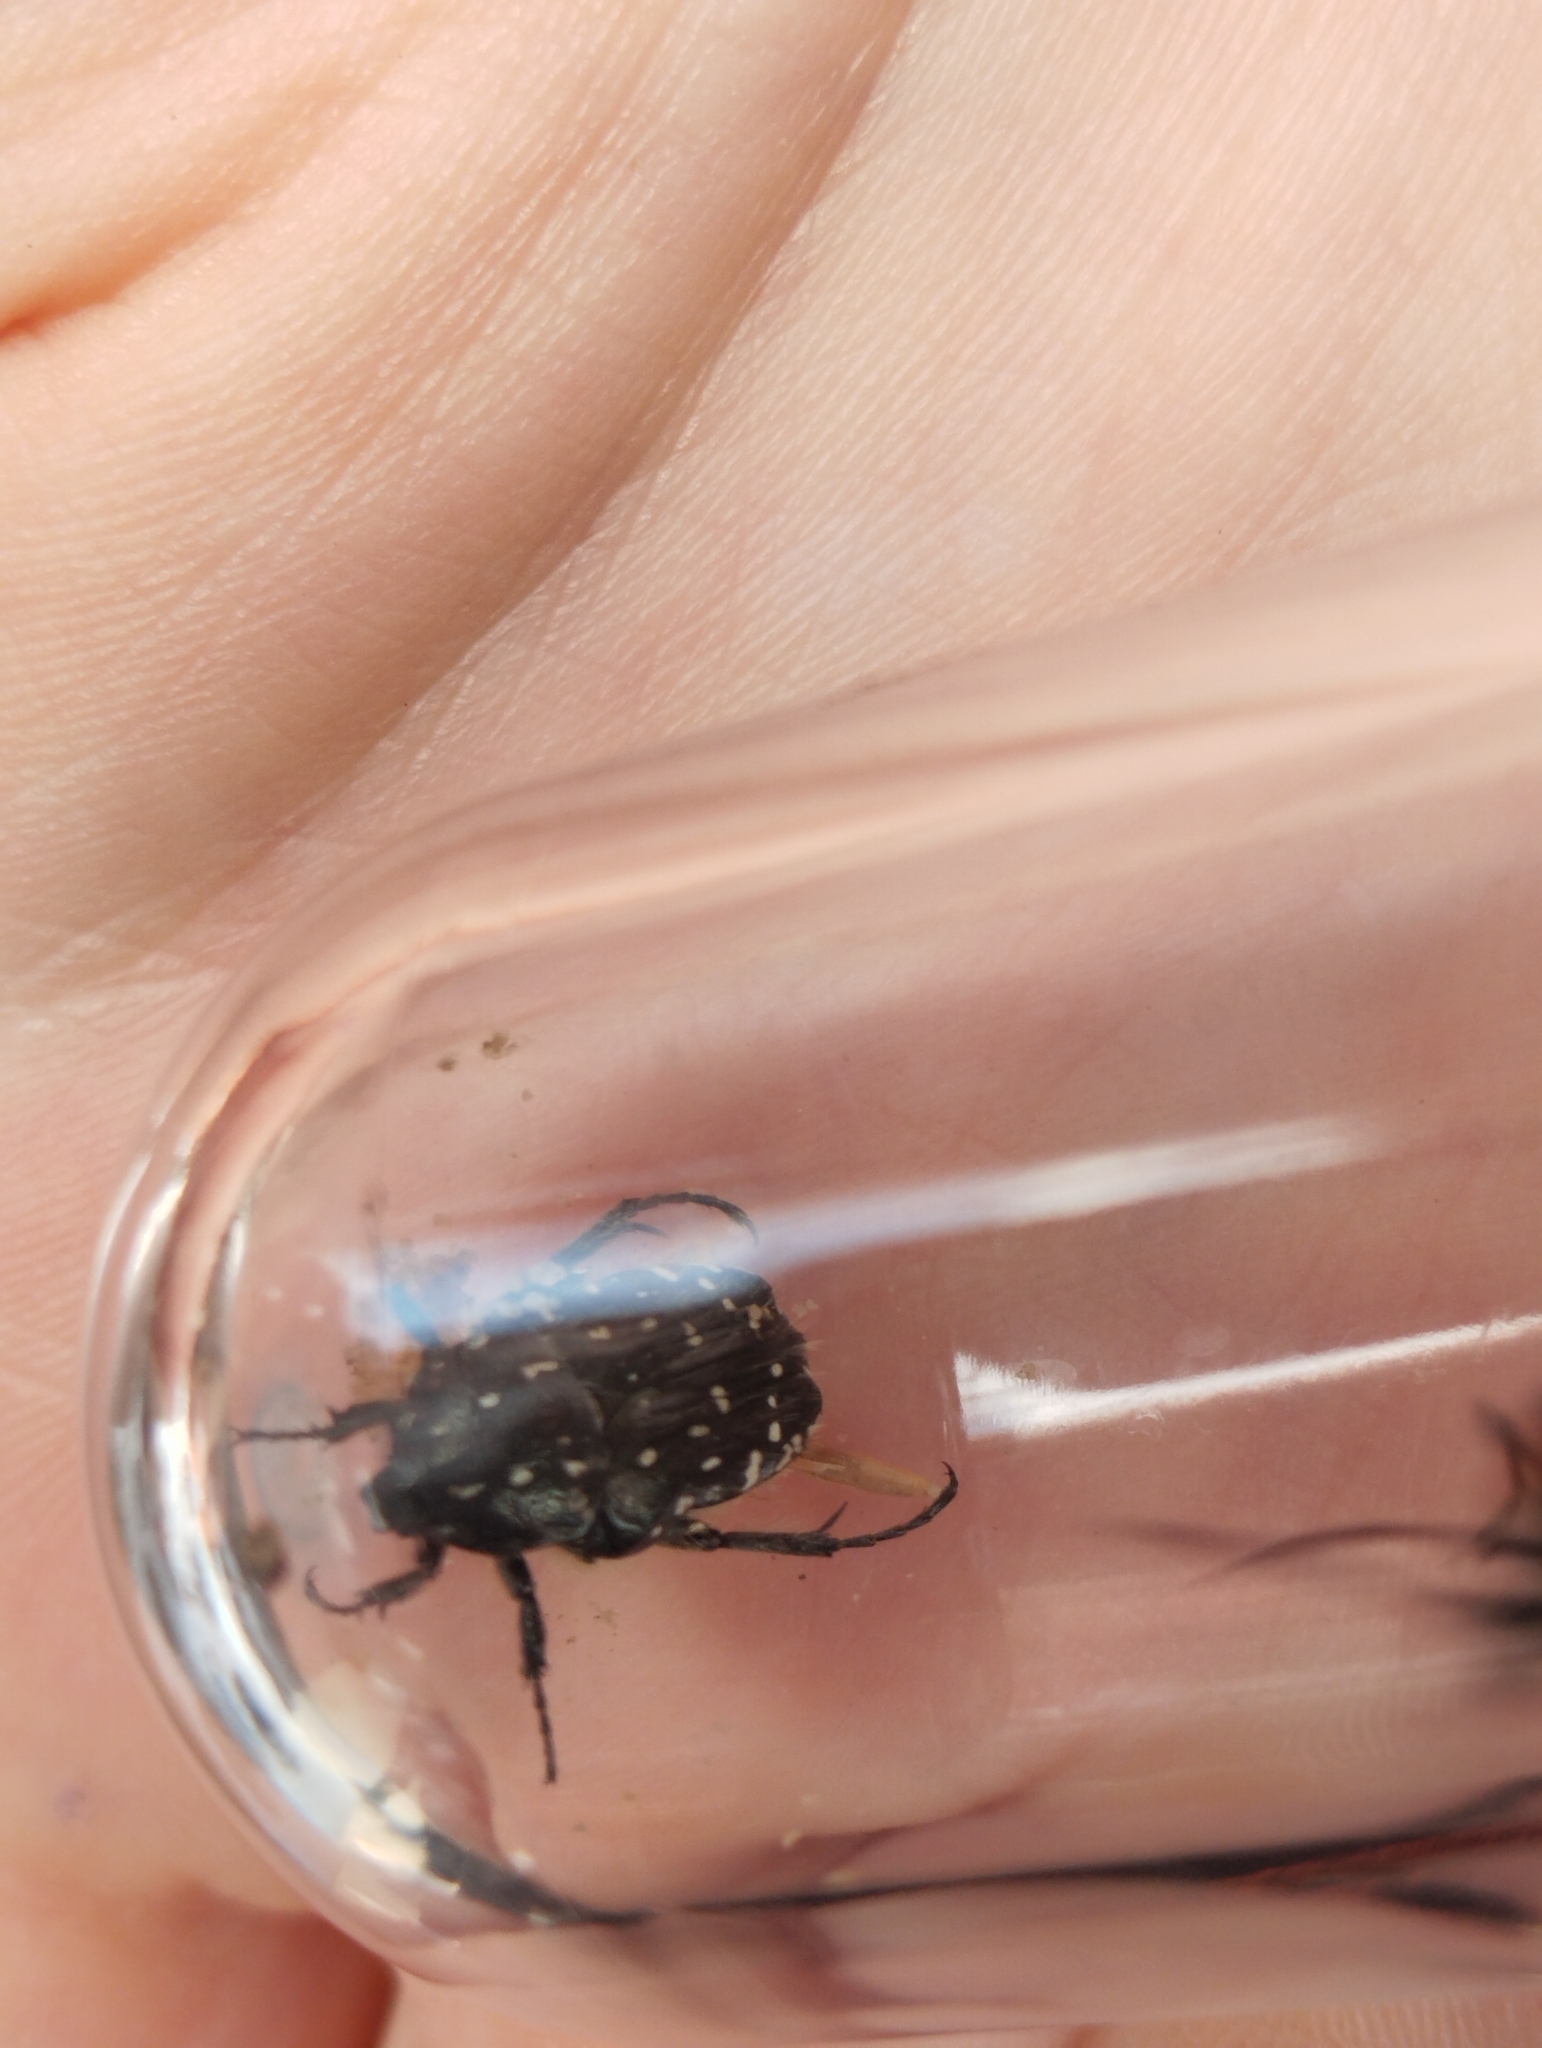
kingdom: Animalia
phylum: Arthropoda
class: Insecta
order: Coleoptera
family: Scarabaeidae
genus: Oxythyrea
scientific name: Oxythyrea funesta
